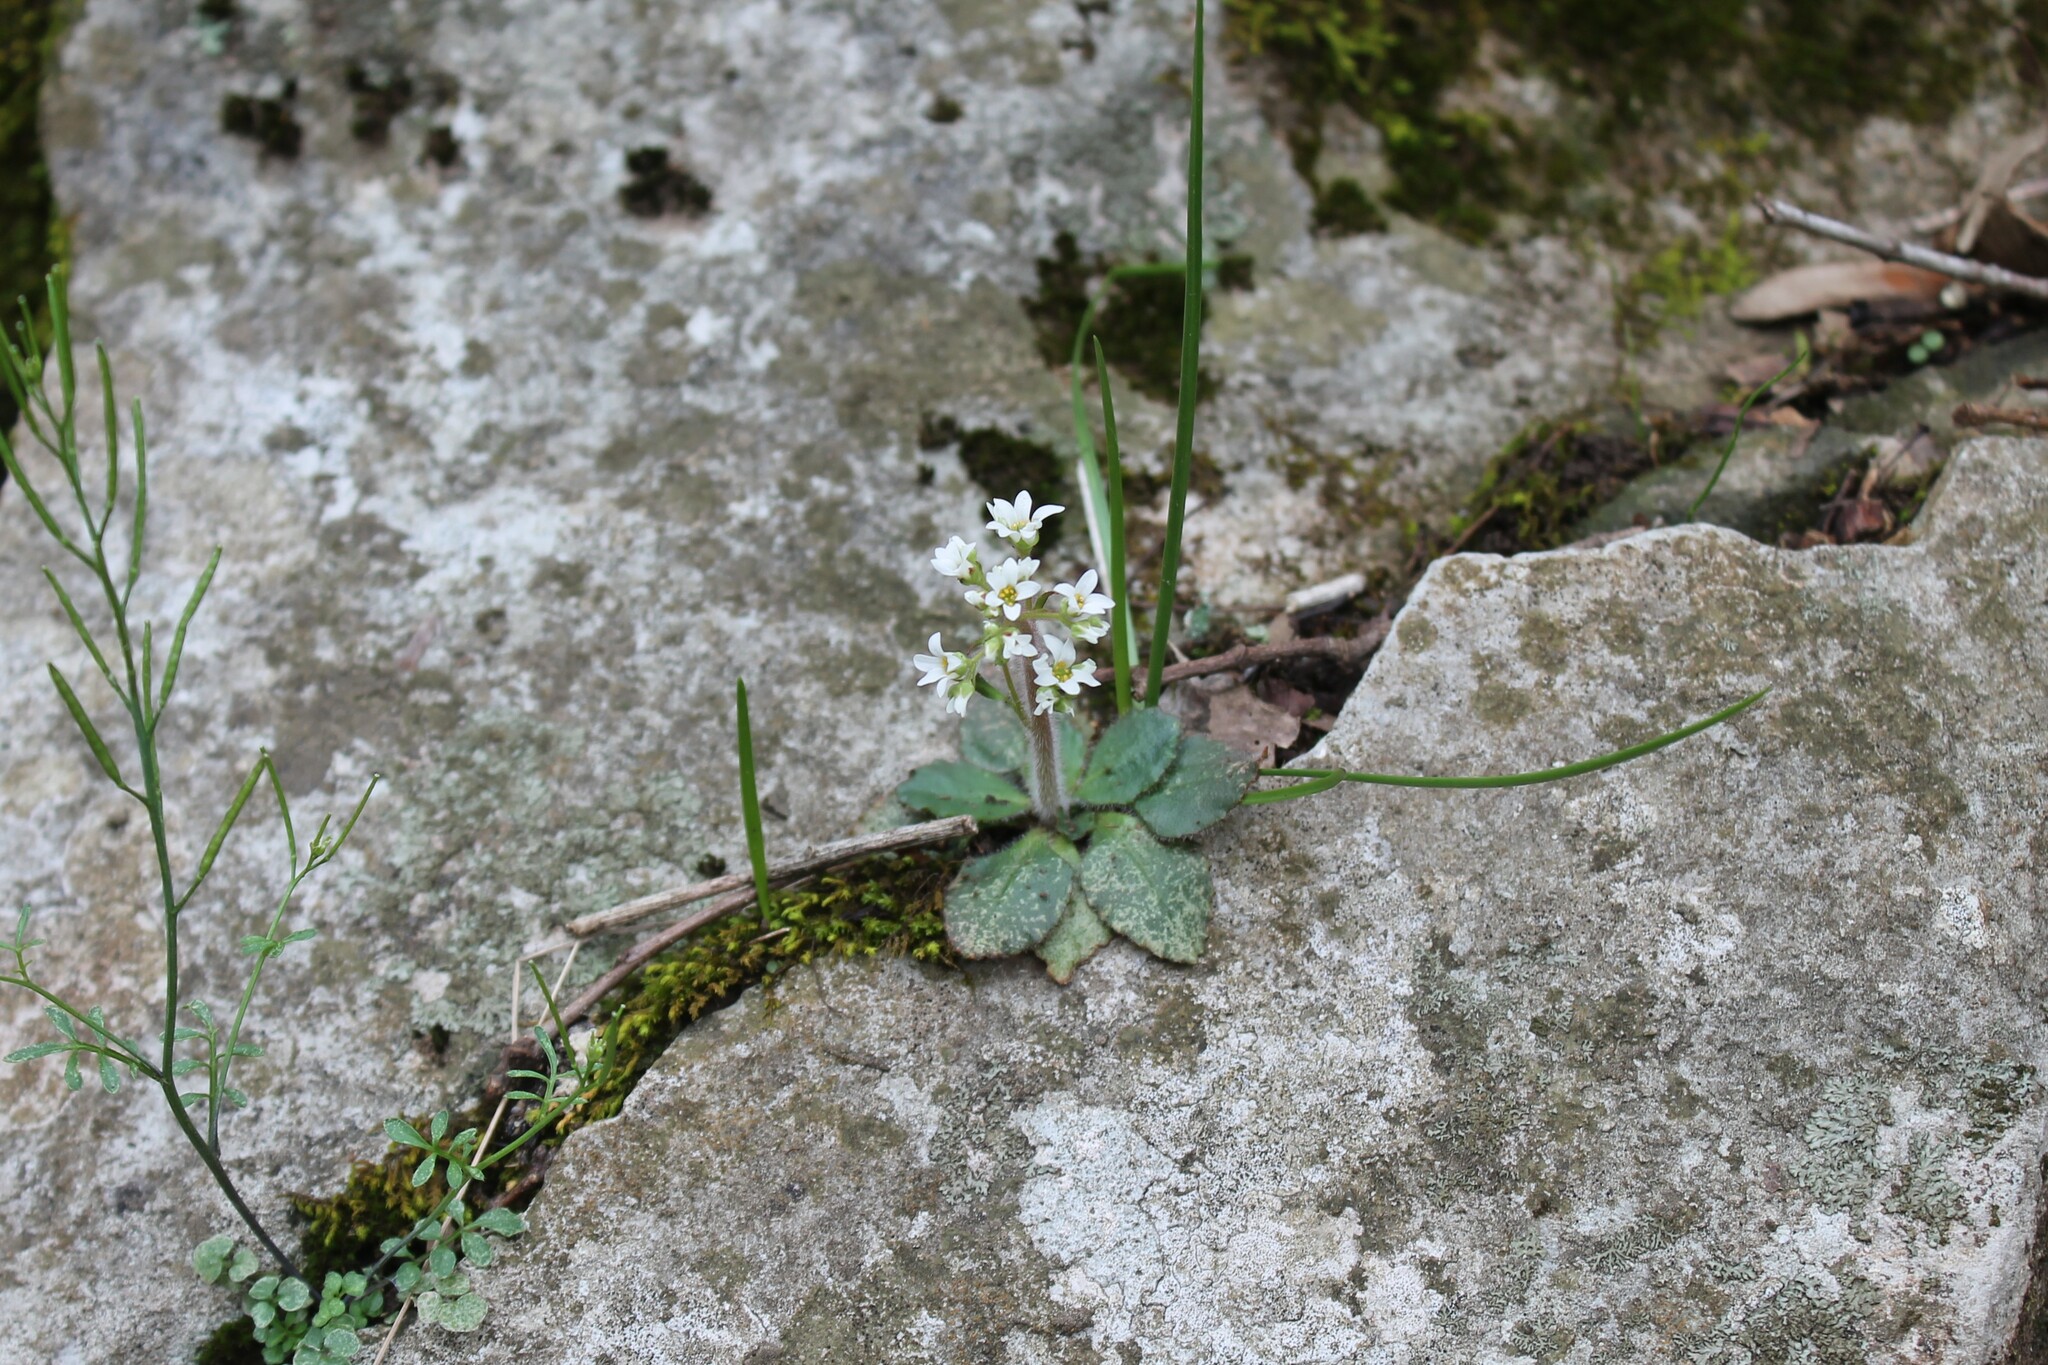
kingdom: Plantae
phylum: Tracheophyta
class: Magnoliopsida
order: Saxifragales
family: Saxifragaceae
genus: Micranthes
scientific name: Micranthes virginiensis
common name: Early saxifrage
